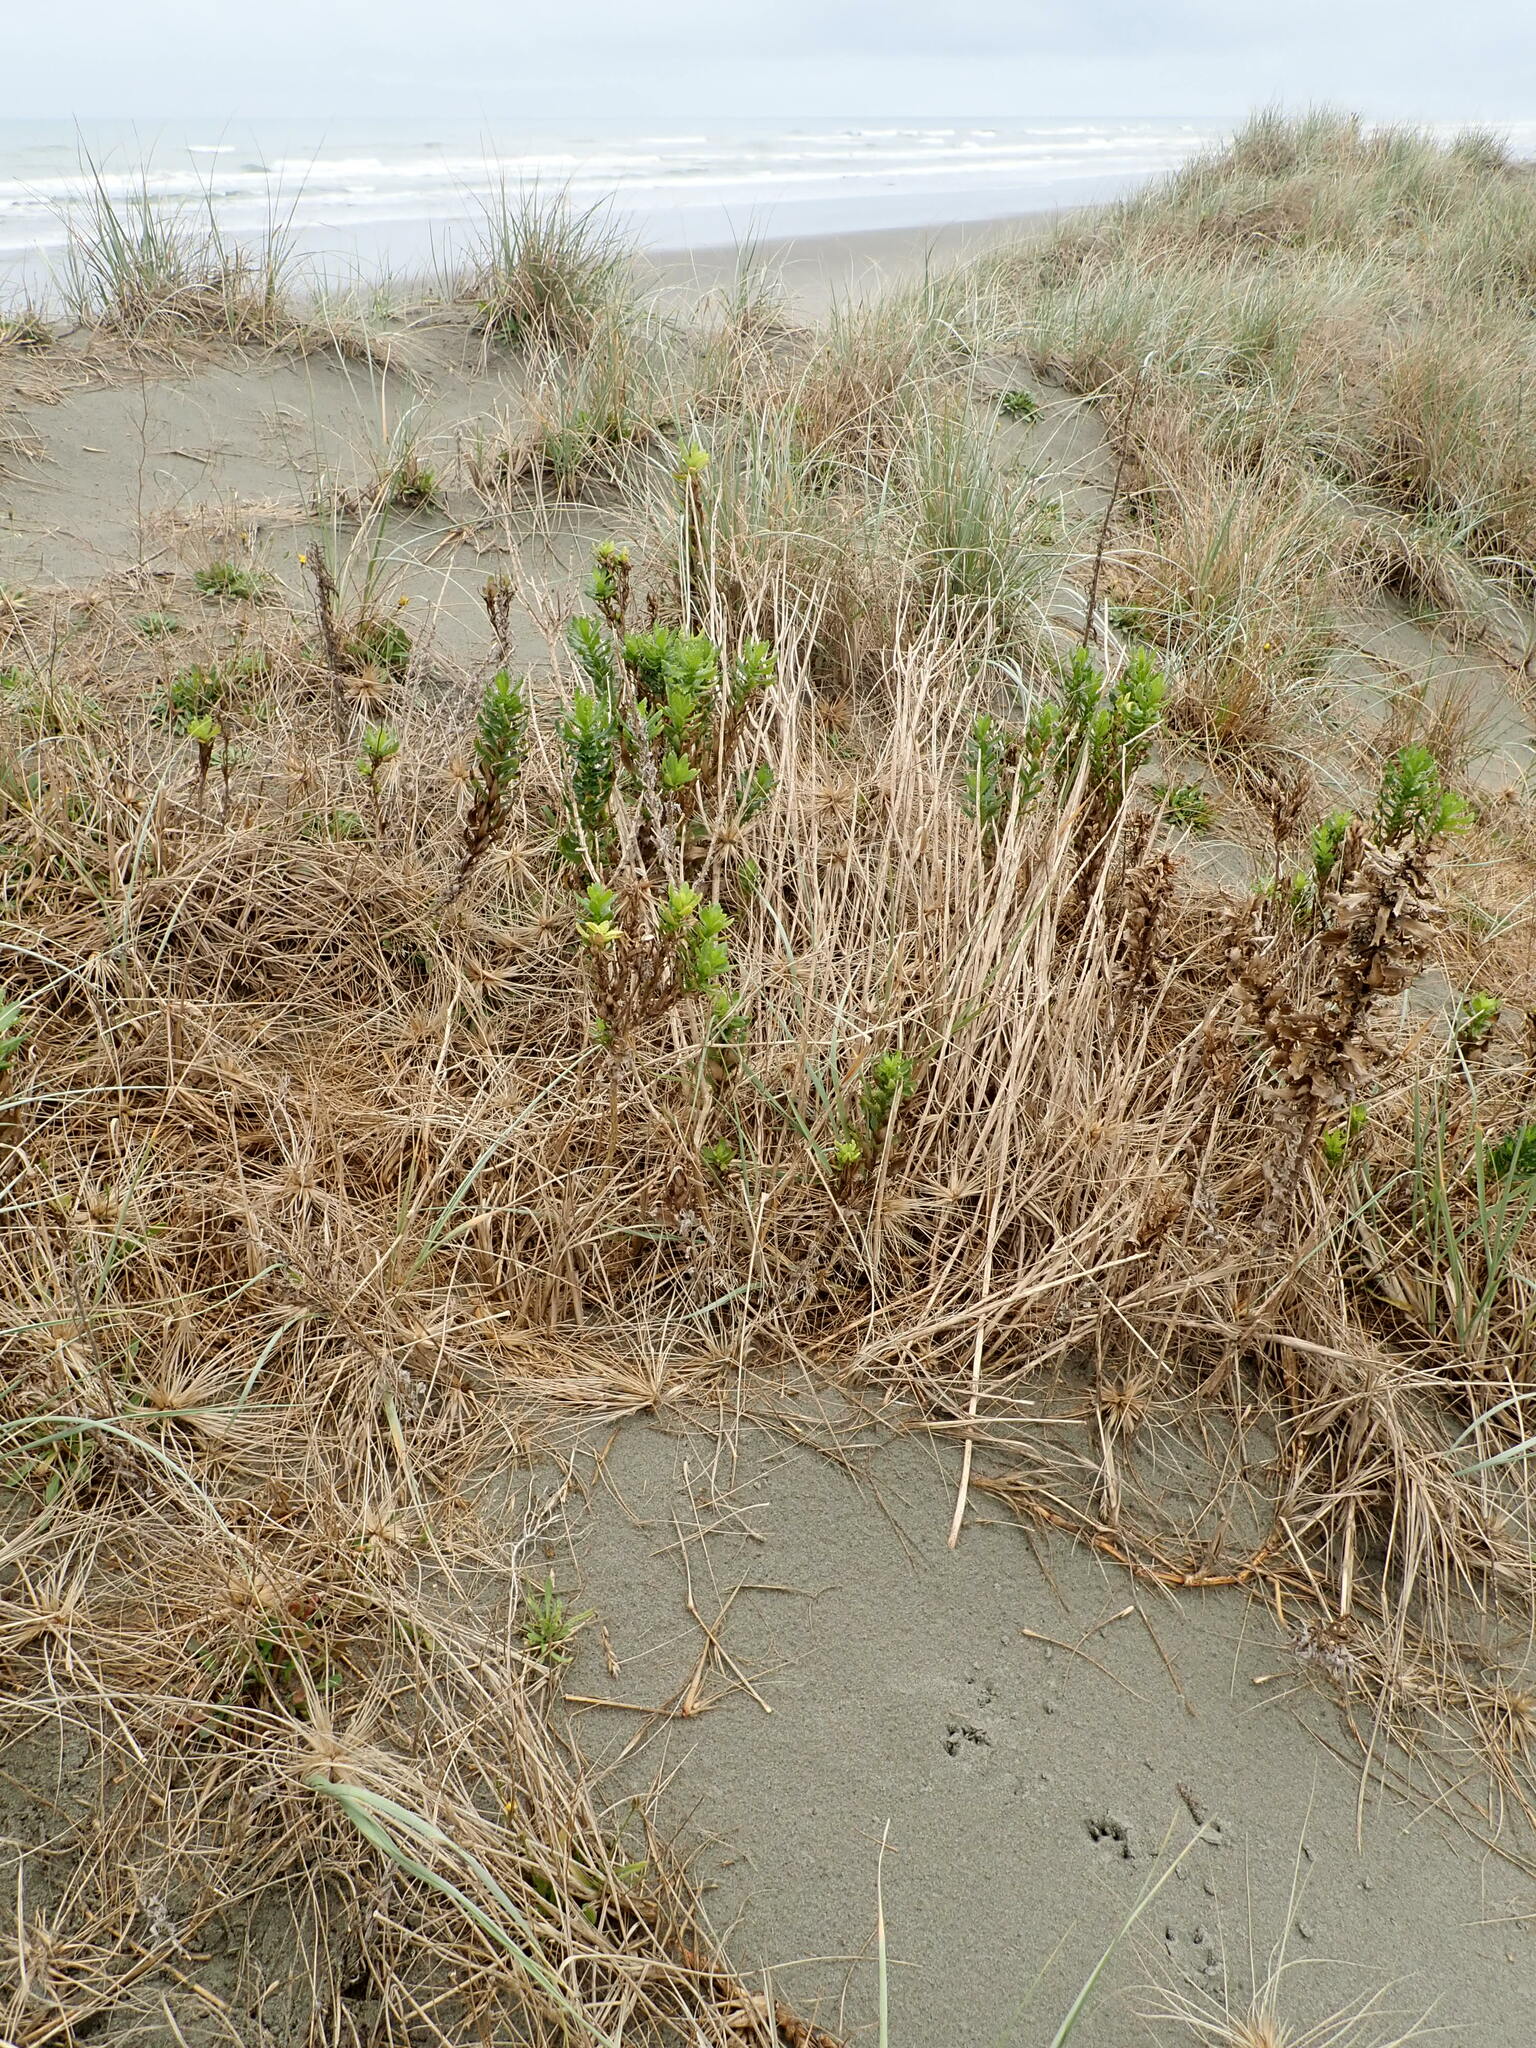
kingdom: Plantae
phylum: Tracheophyta
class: Magnoliopsida
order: Asterales
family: Asteraceae
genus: Senecio
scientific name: Senecio glastifolius
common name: Woad-leaved ragwort
